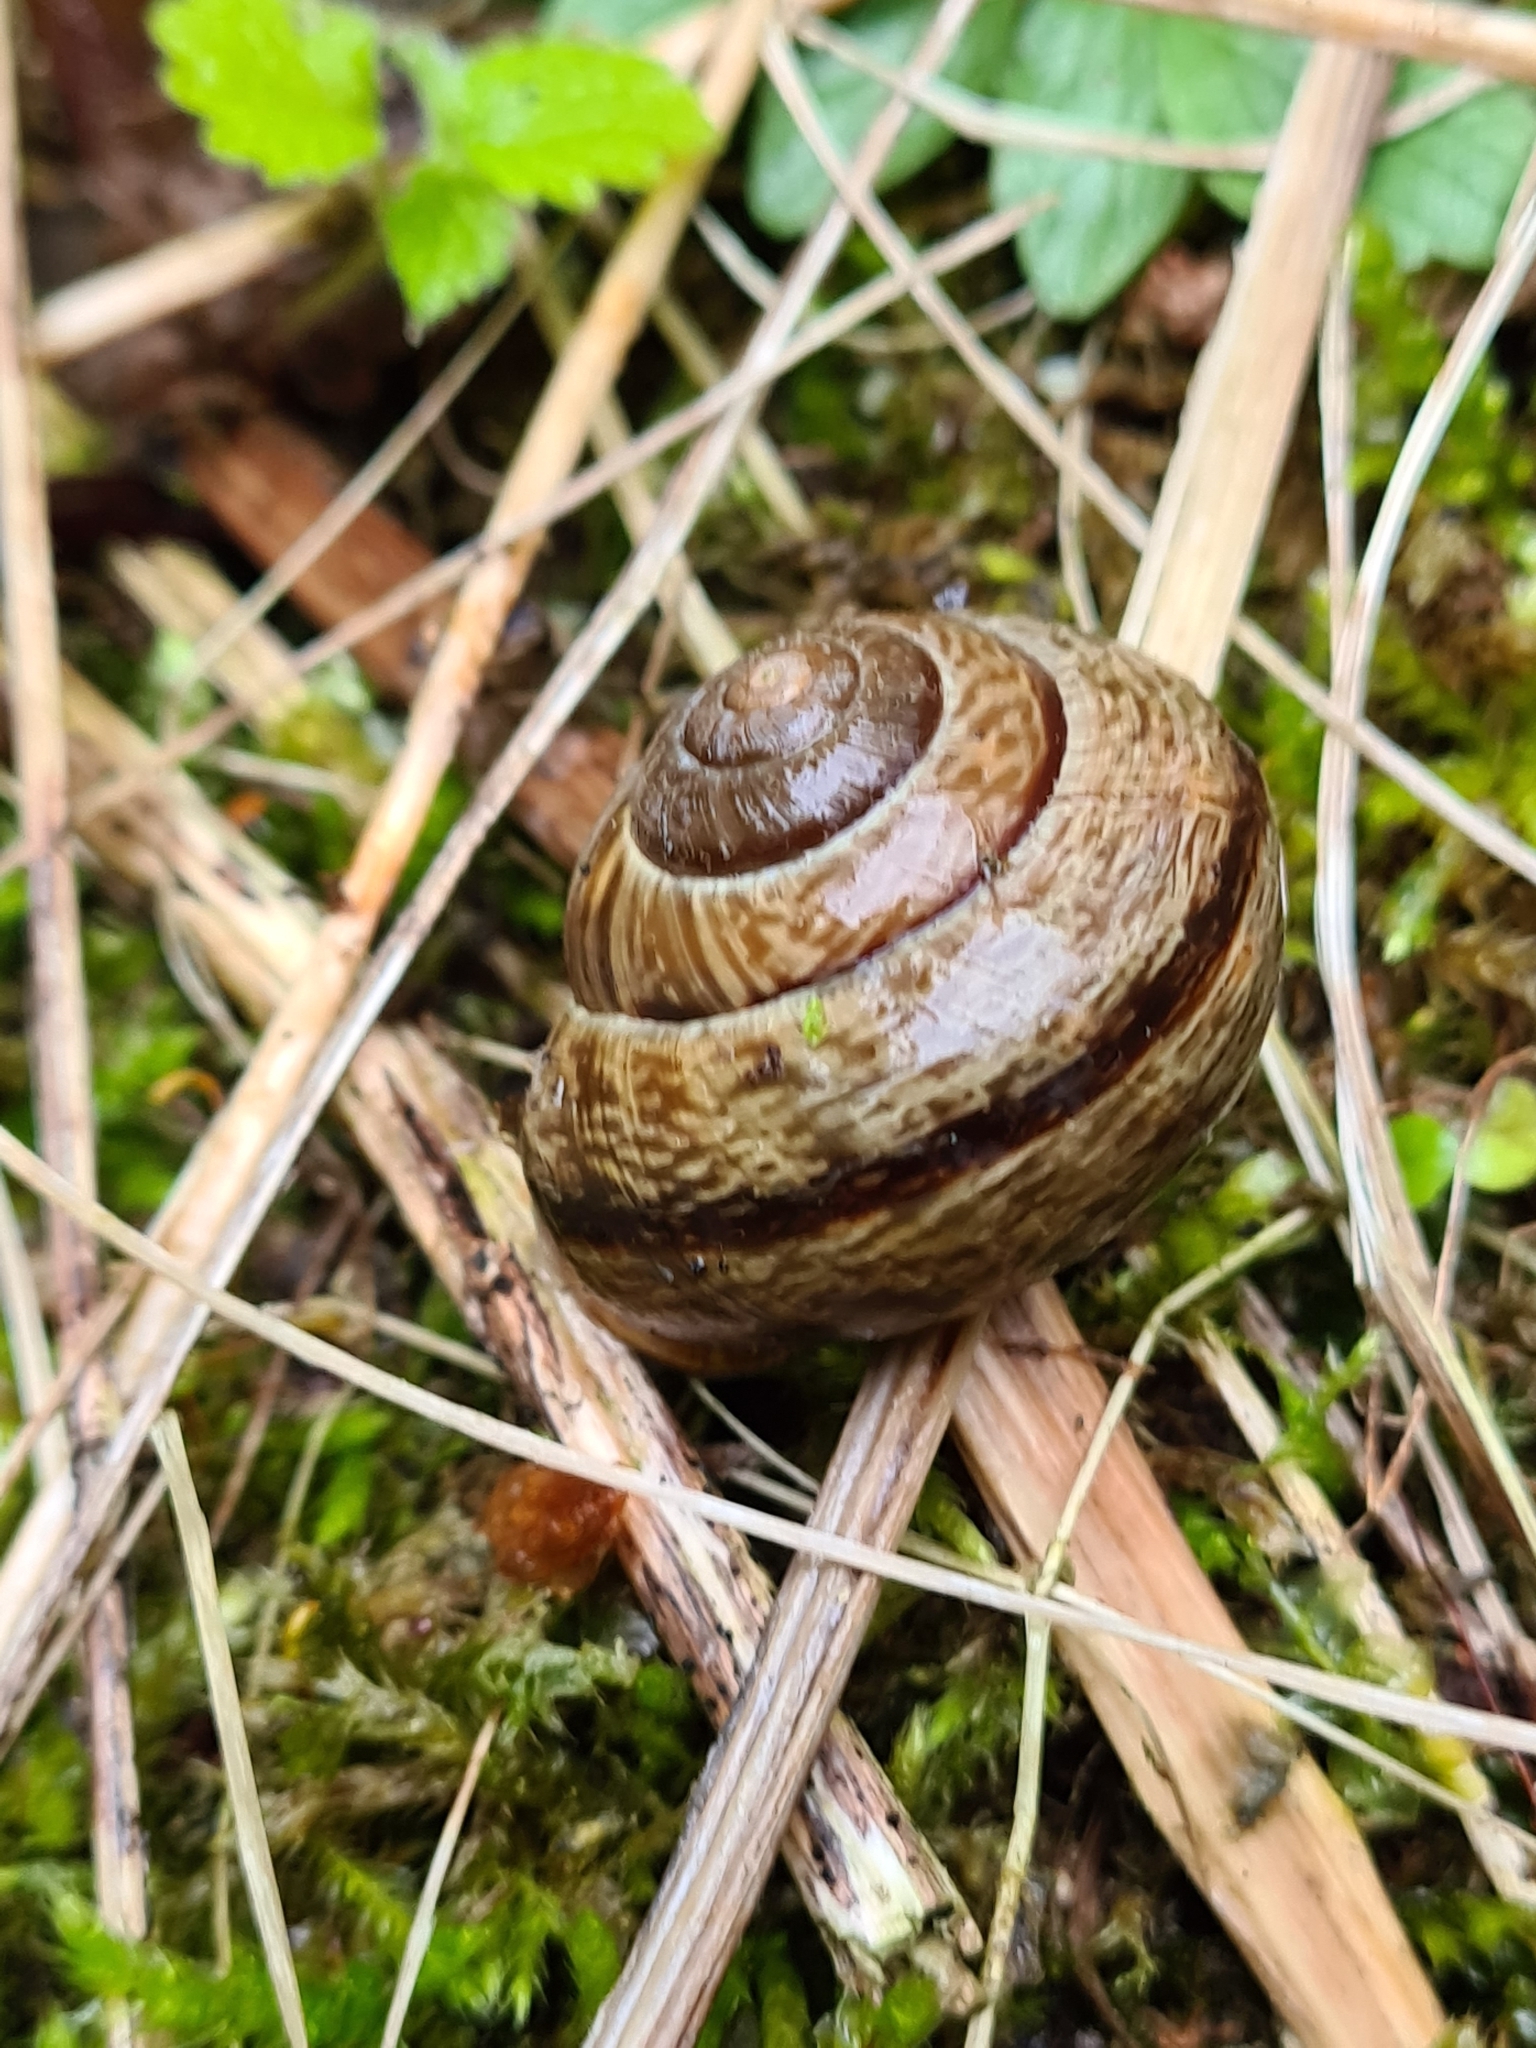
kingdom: Animalia
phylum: Mollusca
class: Gastropoda
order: Stylommatophora
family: Helicidae
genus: Arianta
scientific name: Arianta arbustorum
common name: Copse snail
